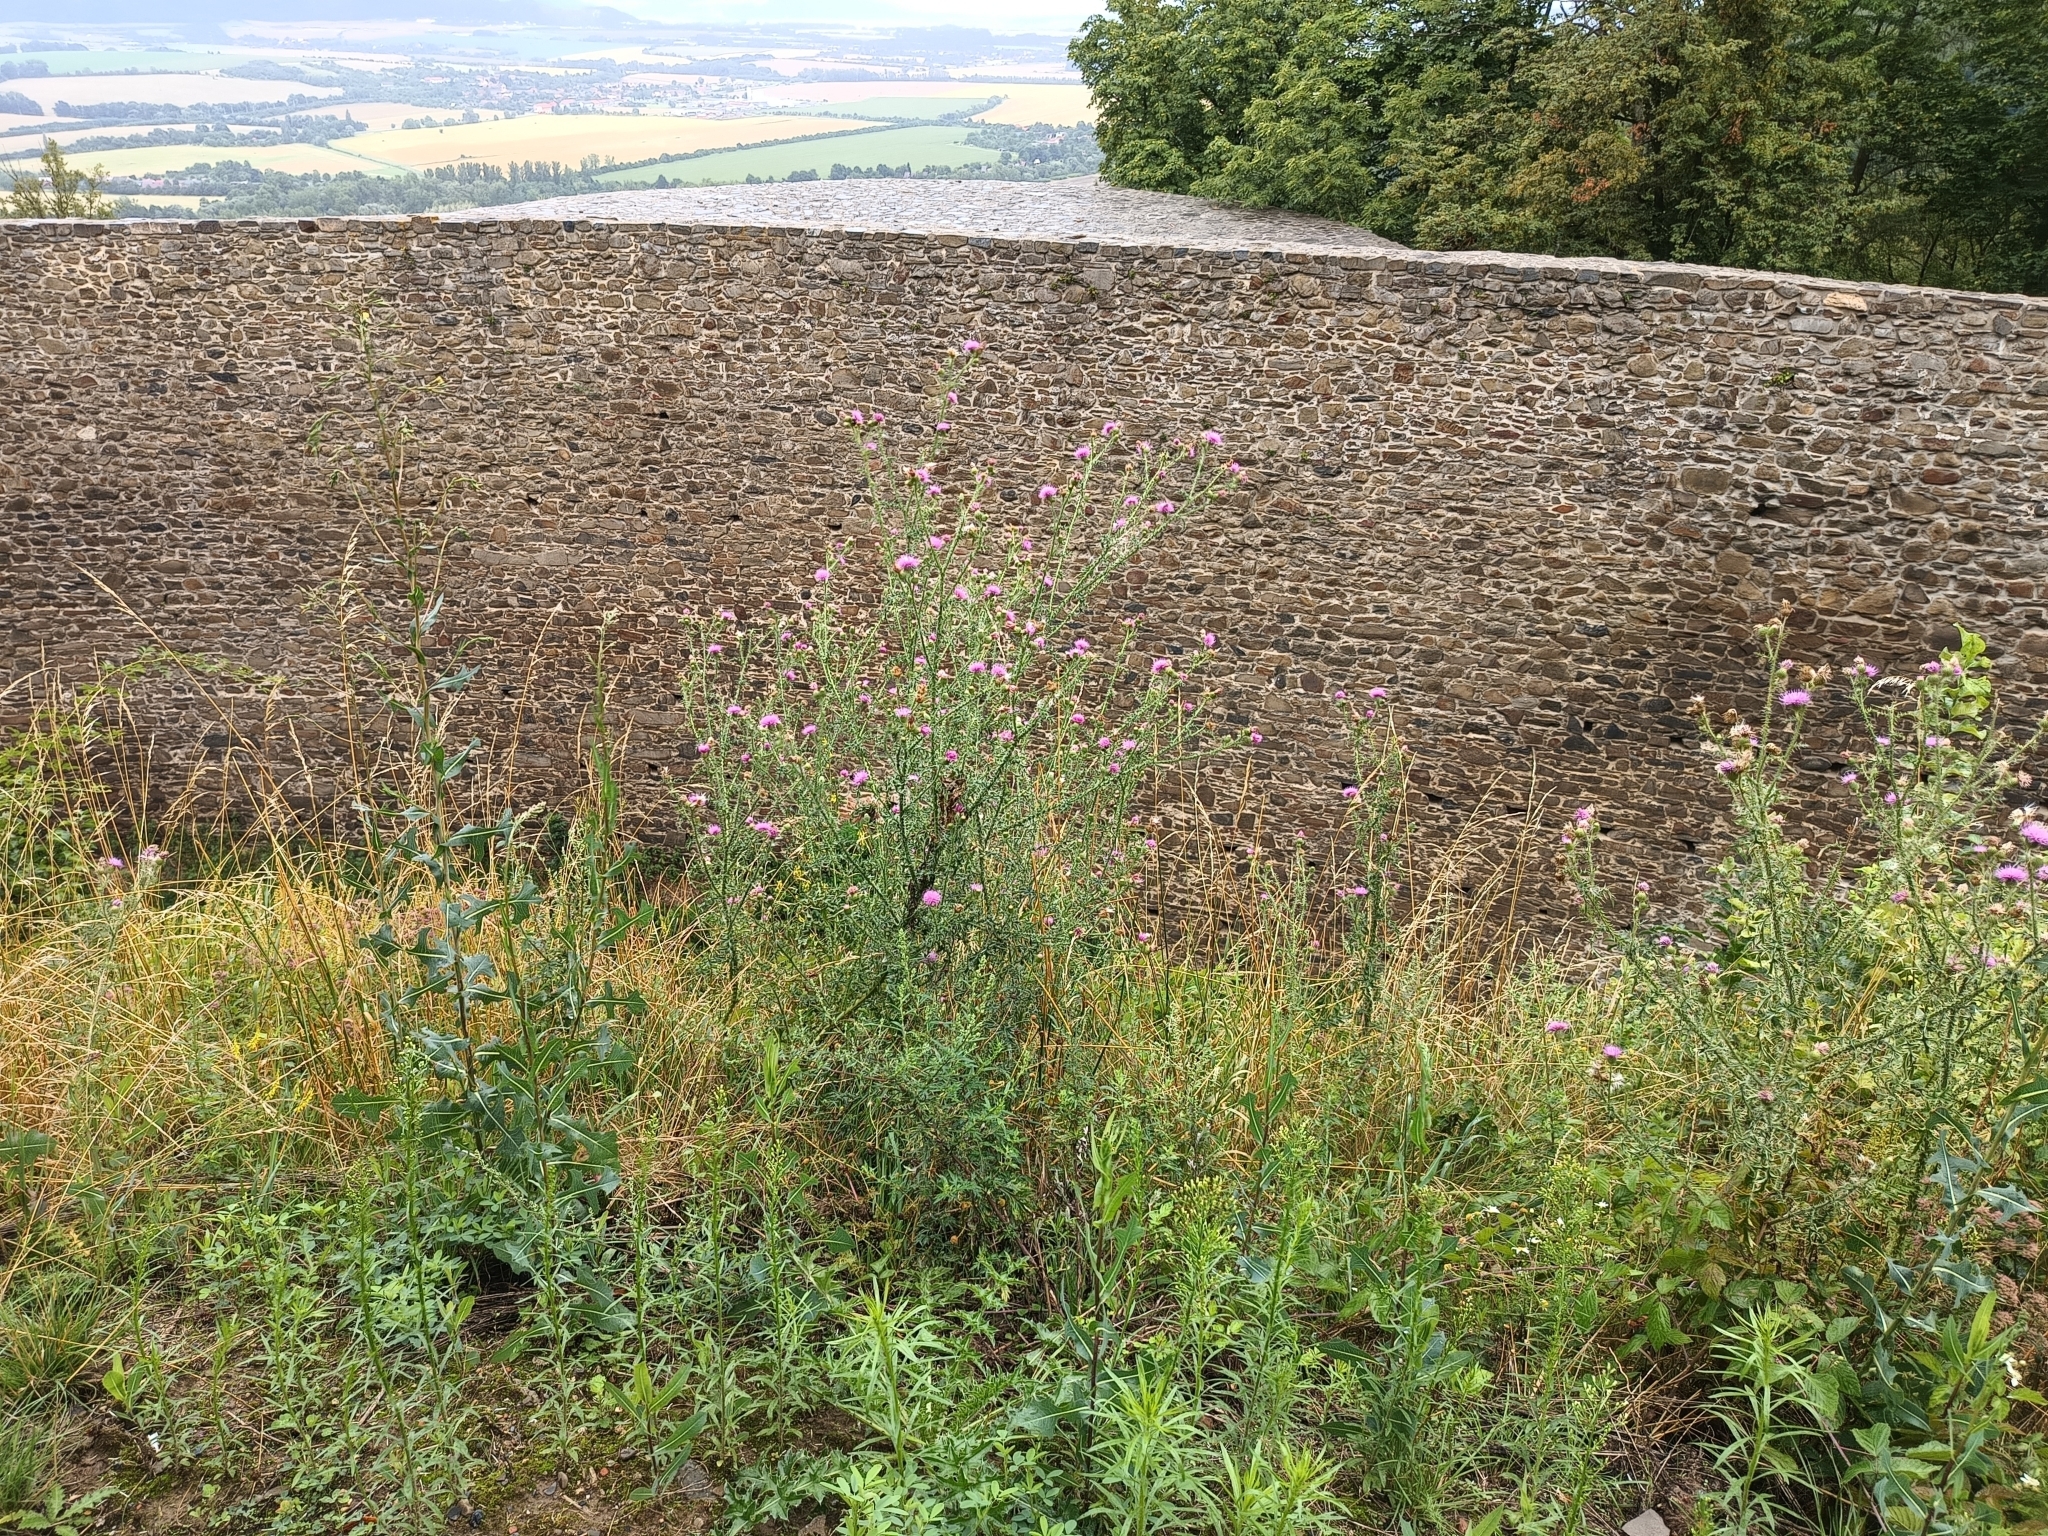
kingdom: Plantae
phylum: Tracheophyta
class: Magnoliopsida
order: Asterales
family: Asteraceae
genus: Carduus
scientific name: Carduus acanthoides
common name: Plumeless thistle
